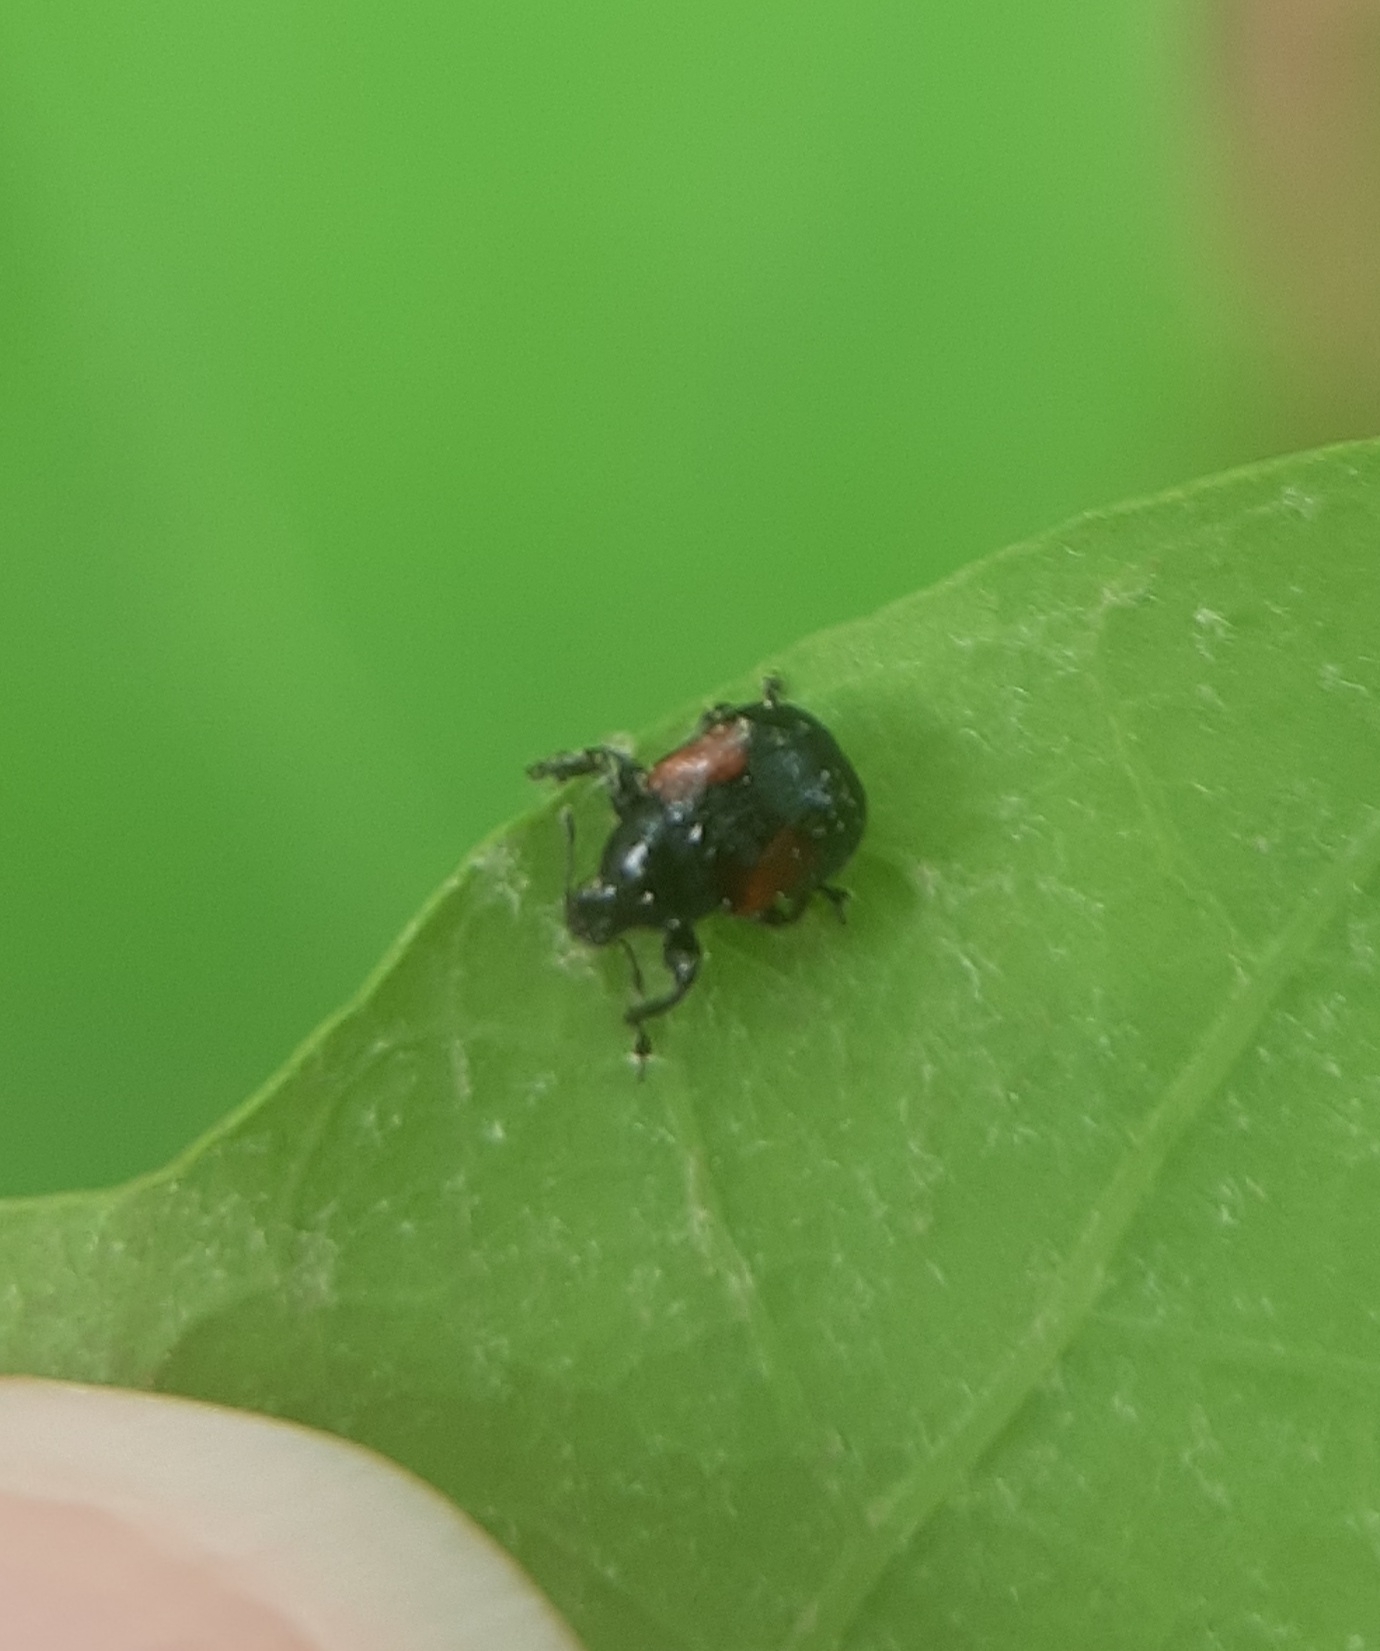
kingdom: Animalia
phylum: Arthropoda
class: Insecta
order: Coleoptera
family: Attelabidae
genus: Attelabus
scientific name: Attelabus bipustulatus
